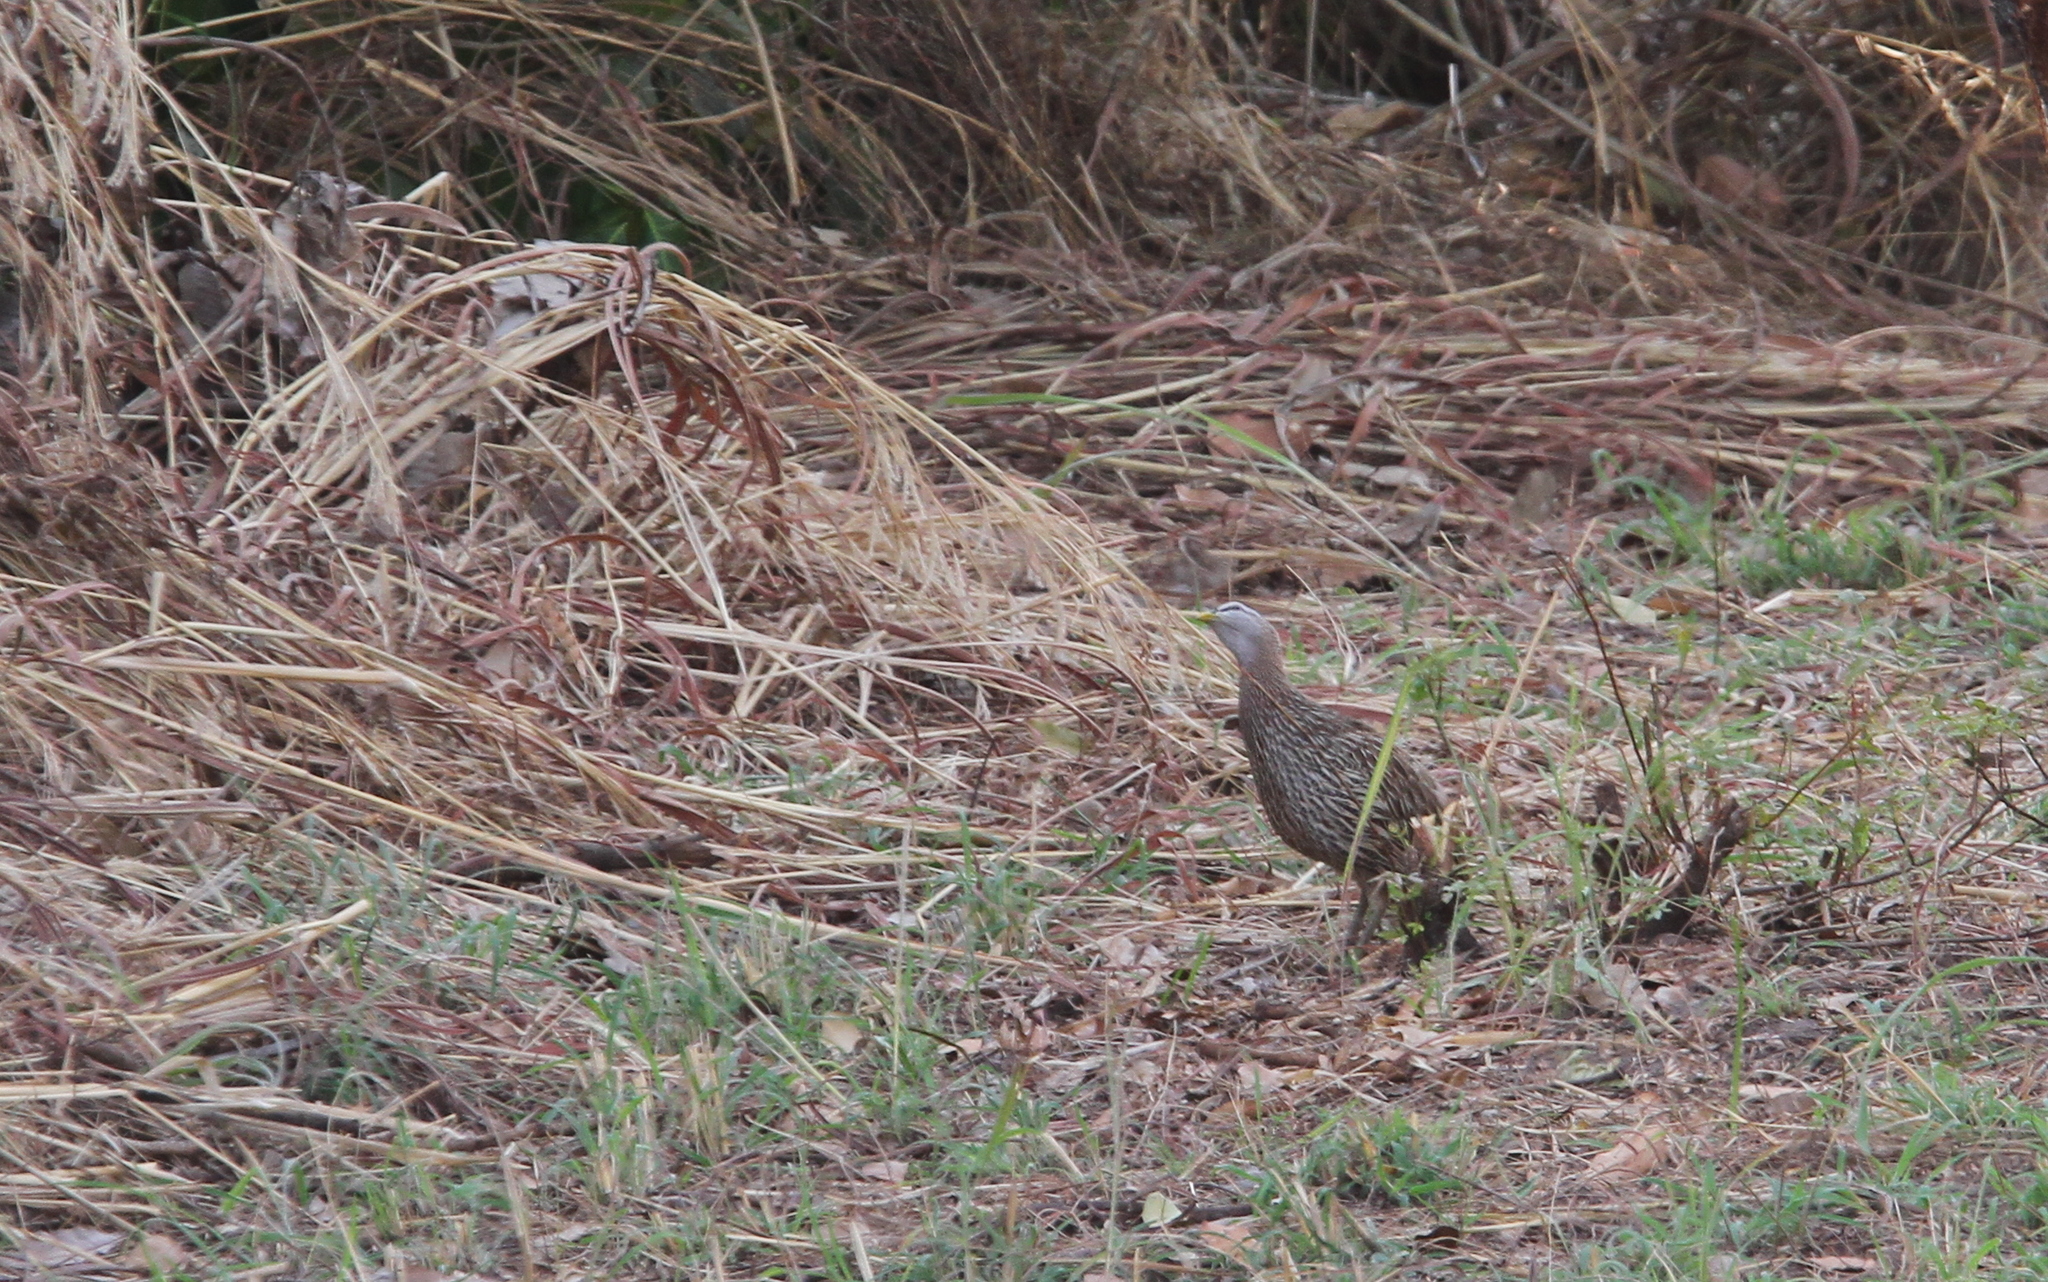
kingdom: Animalia
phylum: Chordata
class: Aves
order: Galliformes
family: Phasianidae
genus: Pternistis
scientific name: Pternistis bicalcaratus
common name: Double-spurred francolin
